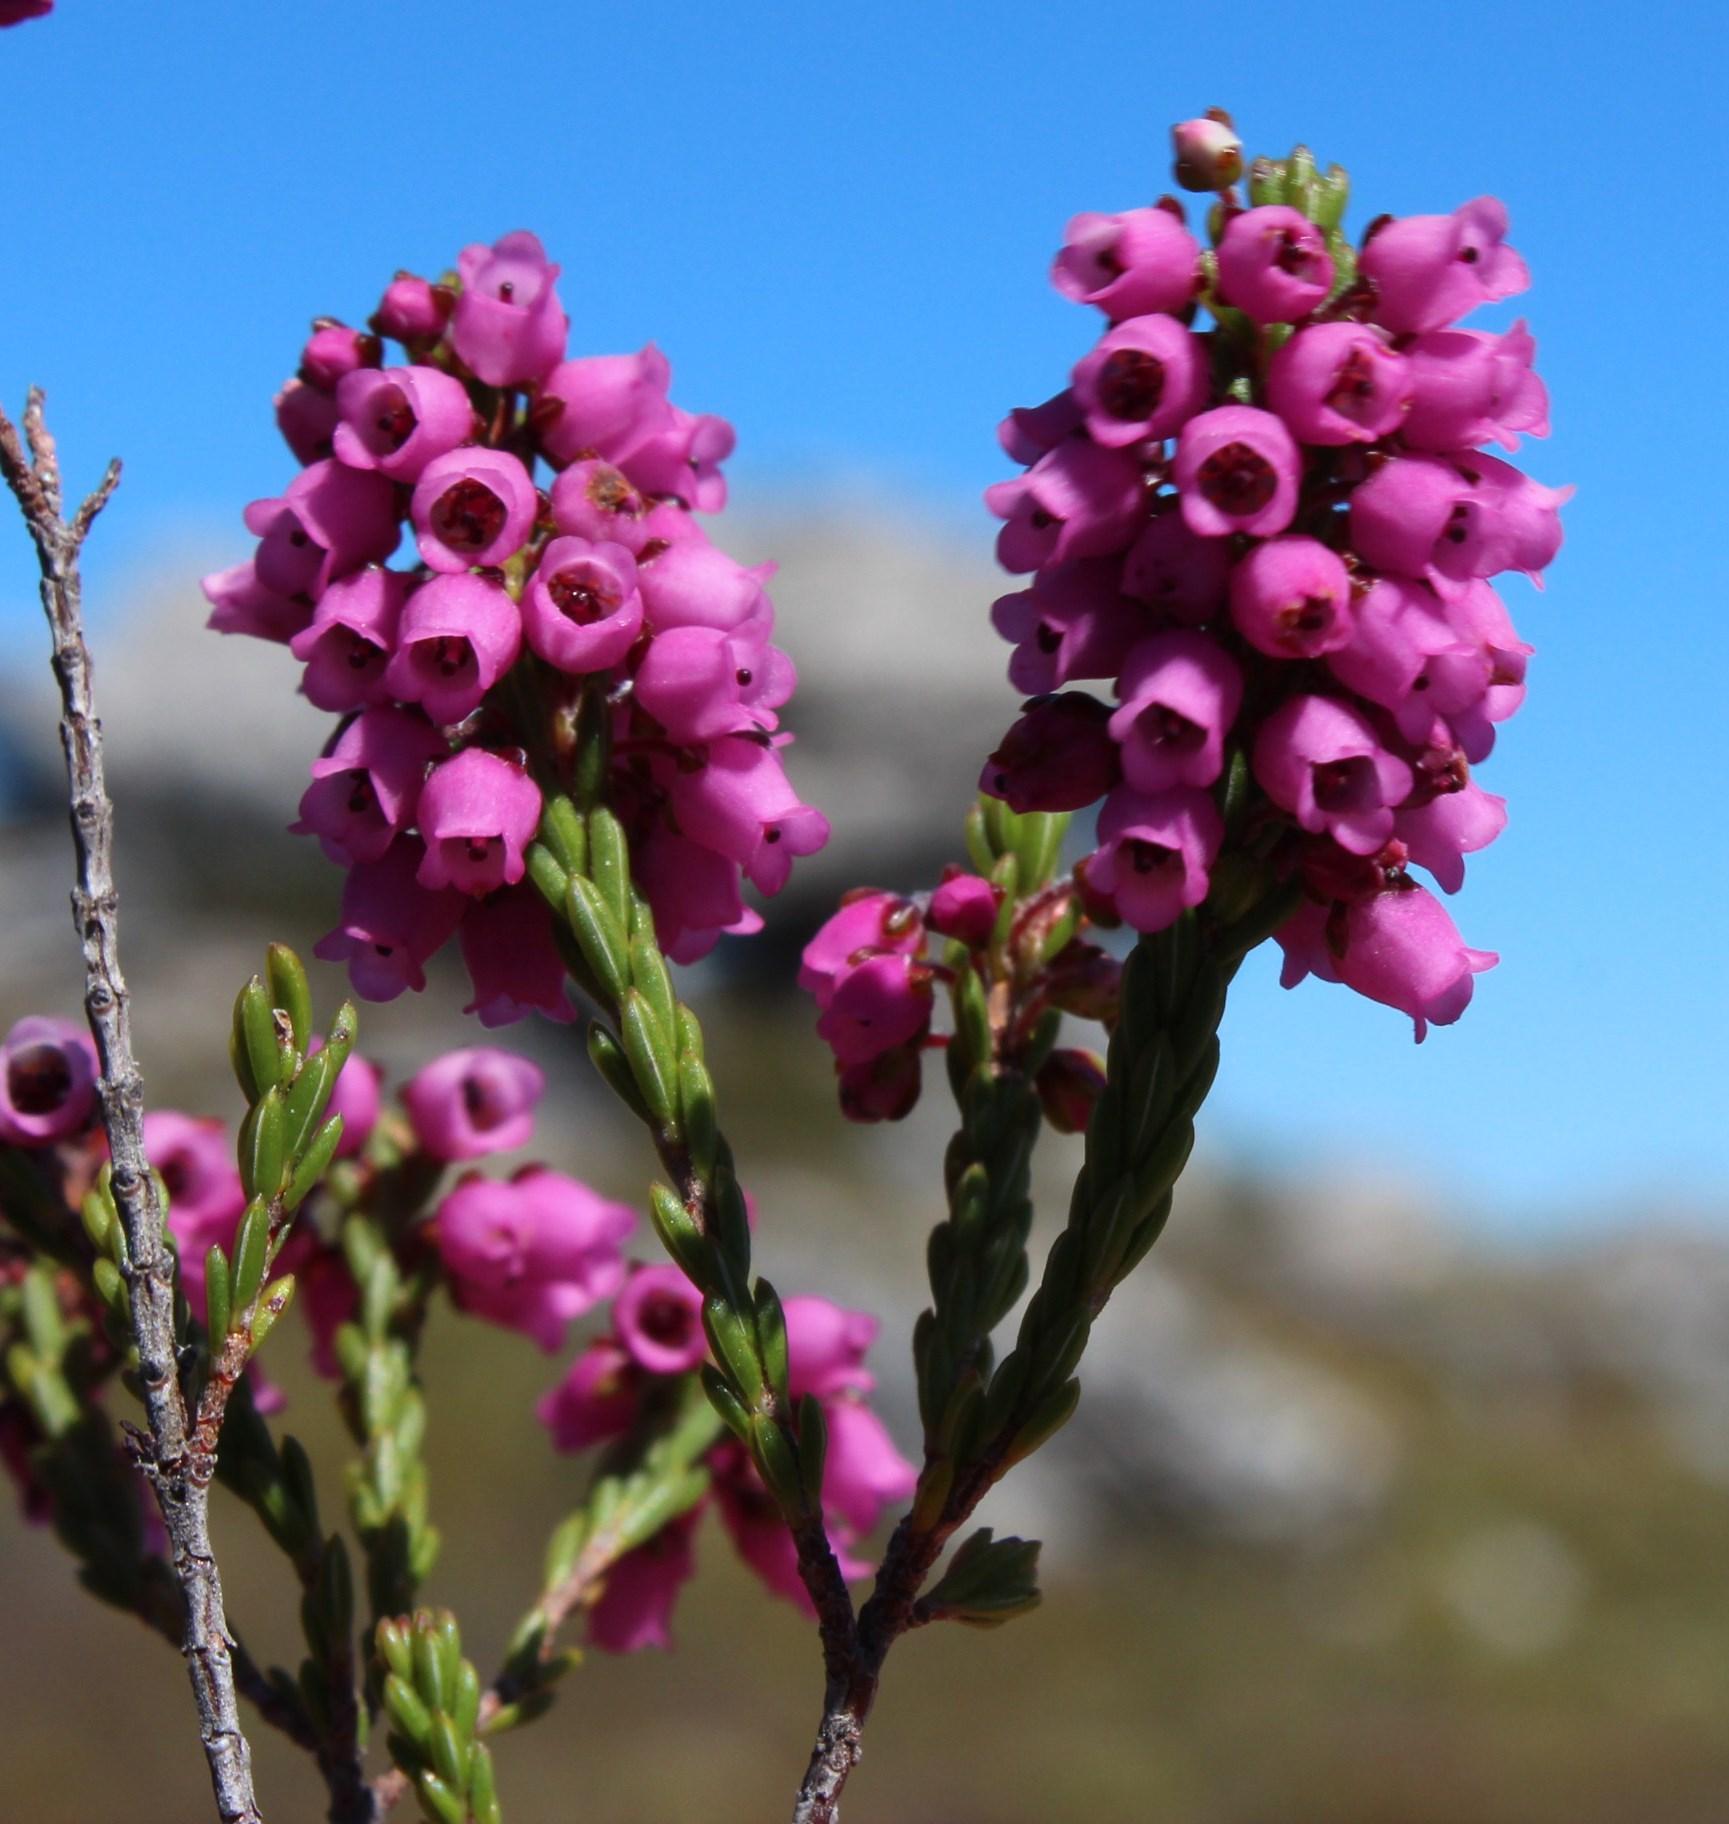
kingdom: Plantae
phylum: Tracheophyta
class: Magnoliopsida
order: Ericales
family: Ericaceae
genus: Erica
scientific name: Erica pulchella
